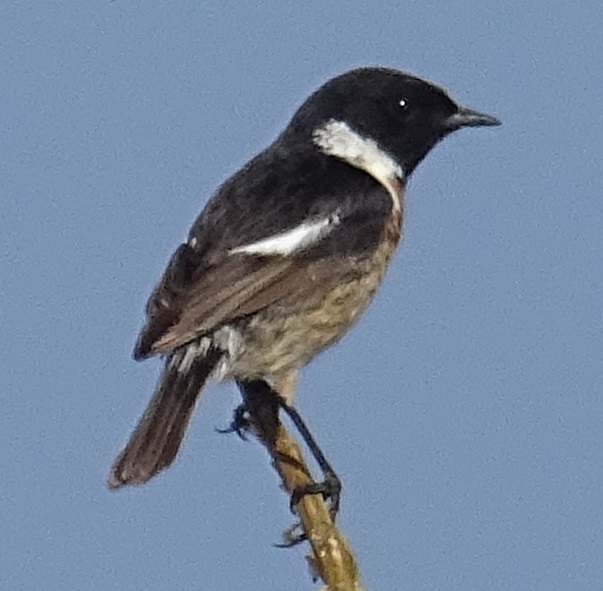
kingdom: Animalia
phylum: Chordata
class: Aves
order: Passeriformes
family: Muscicapidae
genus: Saxicola
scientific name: Saxicola rubicola
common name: European stonechat
